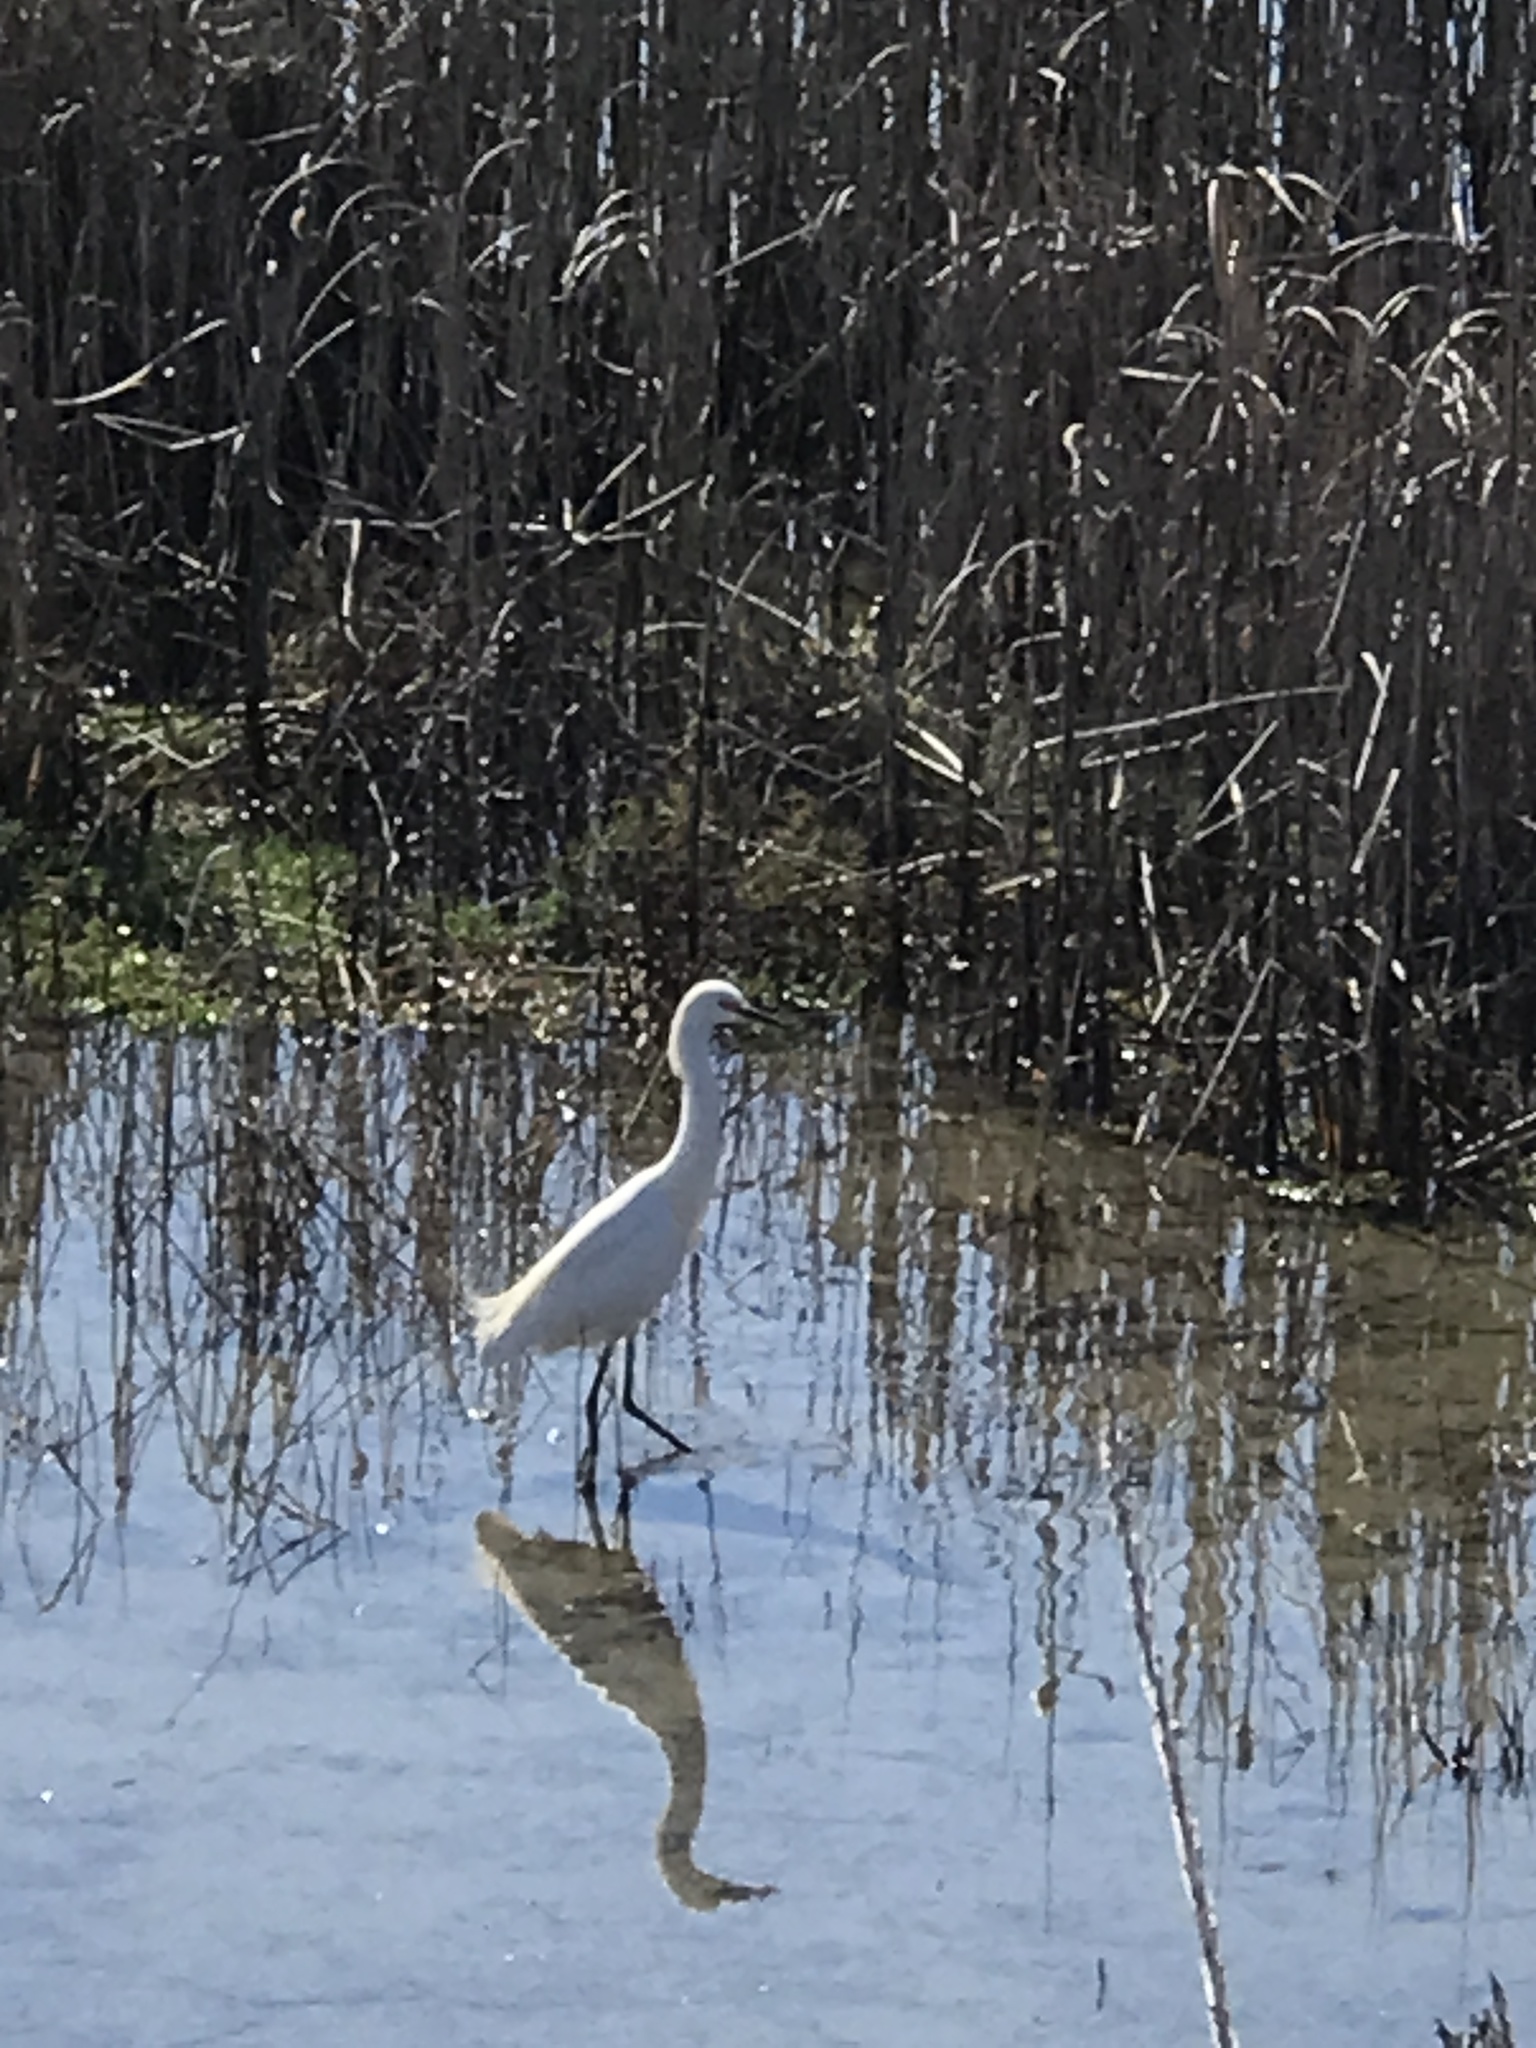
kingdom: Animalia
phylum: Chordata
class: Aves
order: Pelecaniformes
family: Ardeidae
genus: Egretta
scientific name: Egretta thula
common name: Snowy egret
